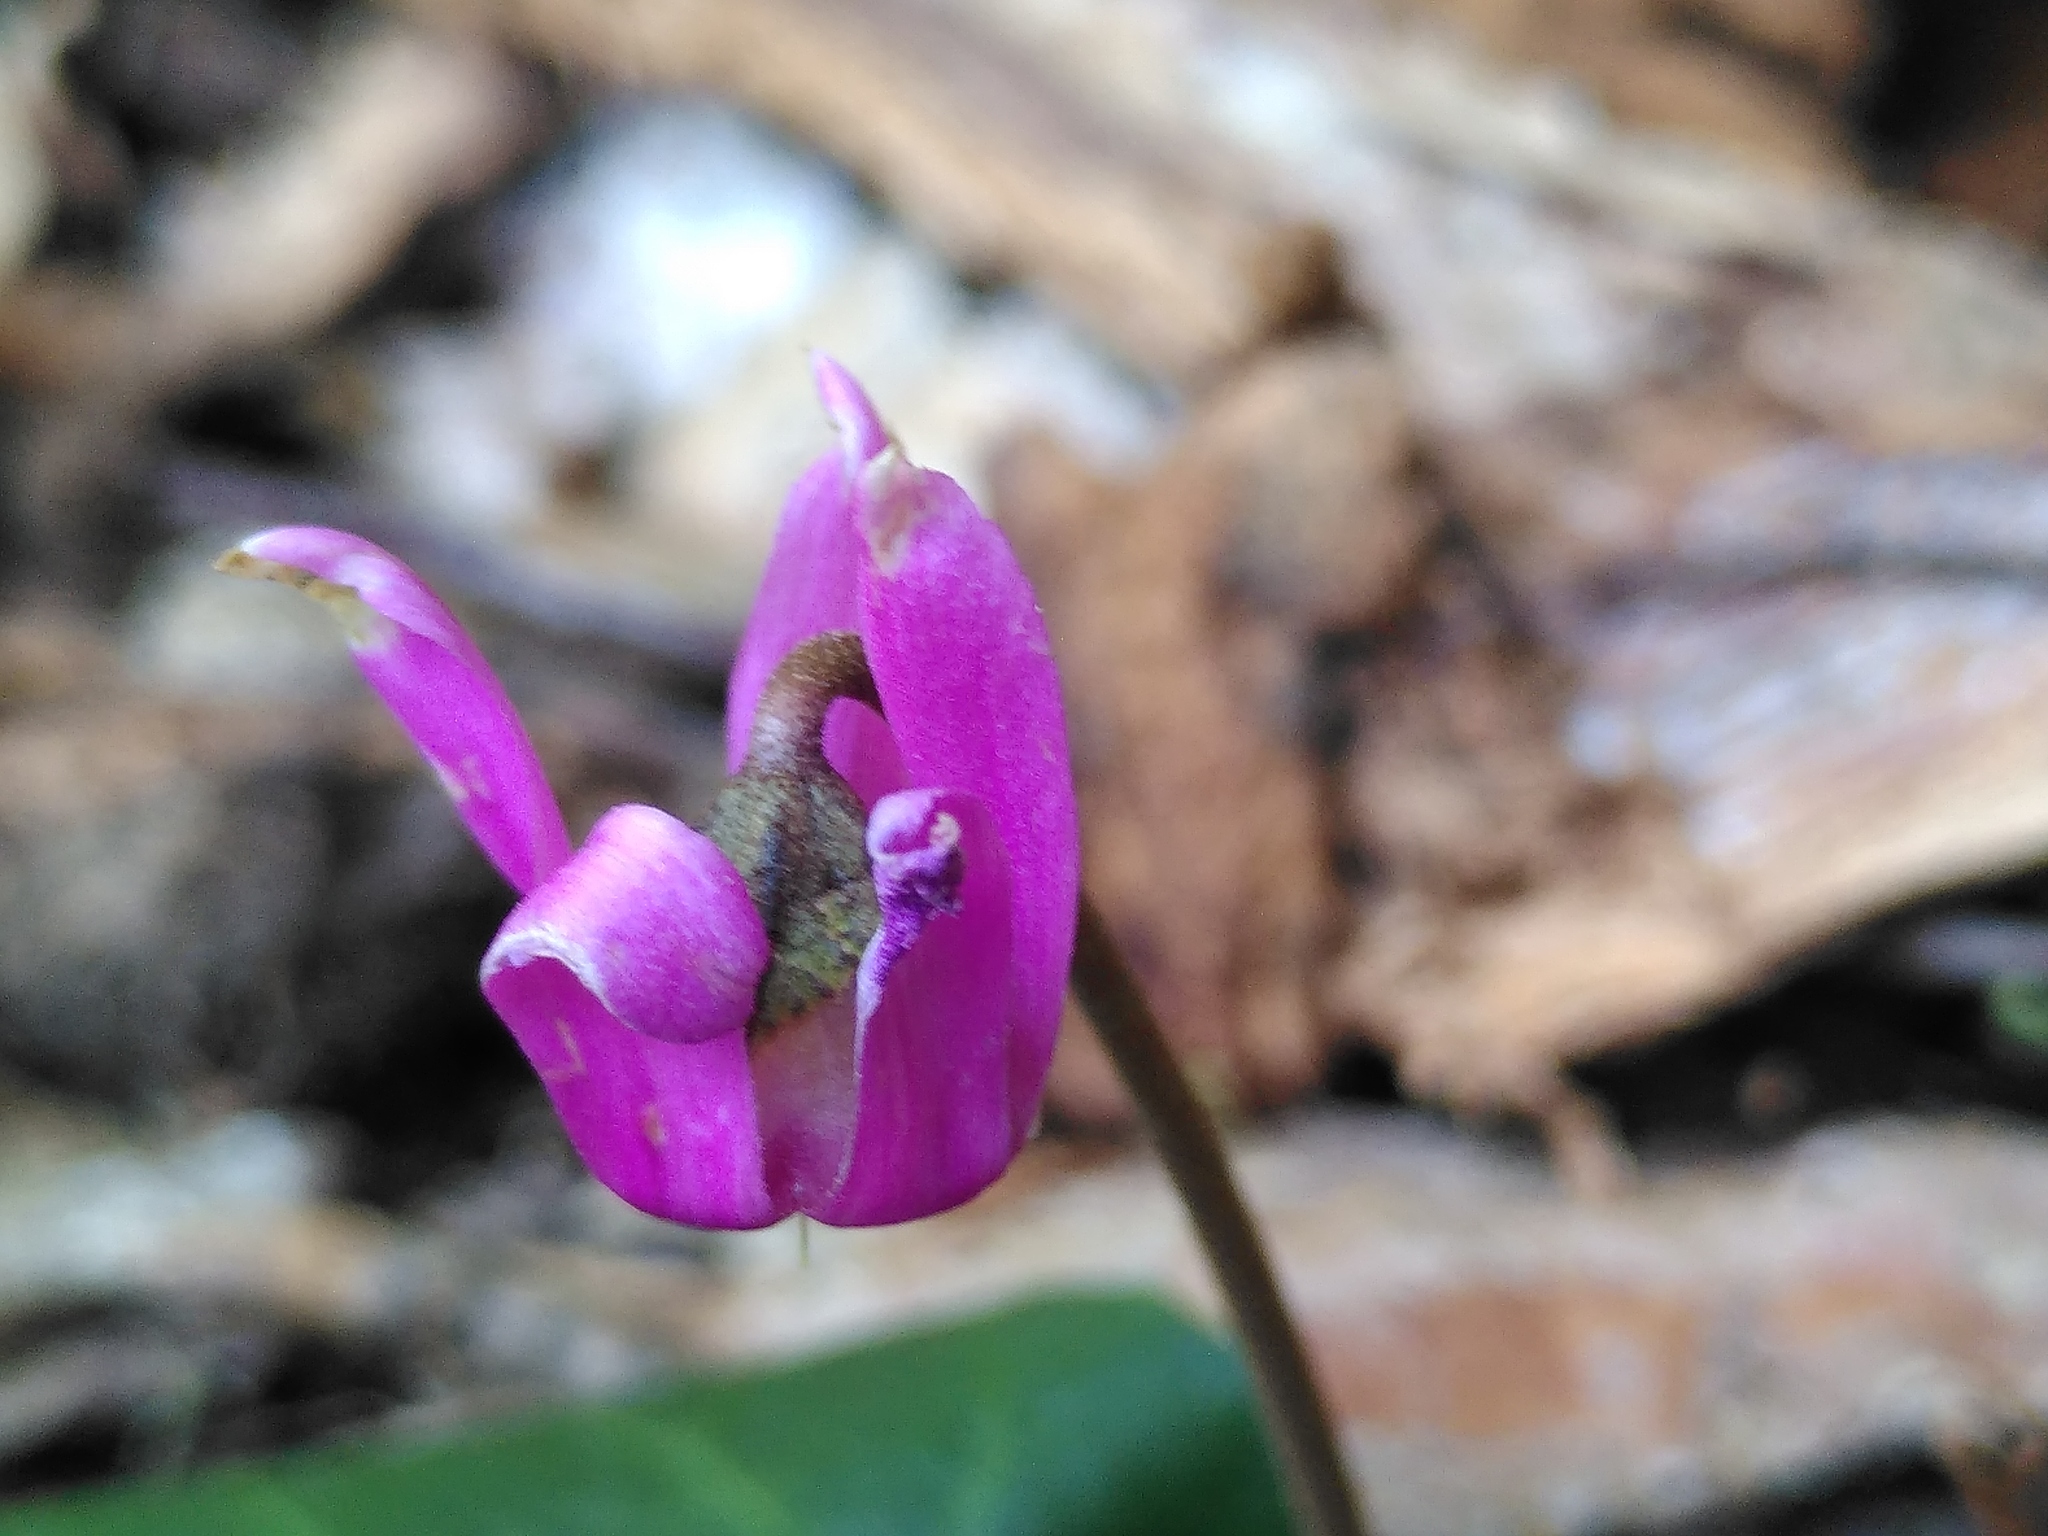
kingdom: Plantae
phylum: Tracheophyta
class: Magnoliopsida
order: Ericales
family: Primulaceae
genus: Cyclamen
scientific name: Cyclamen purpurascens
